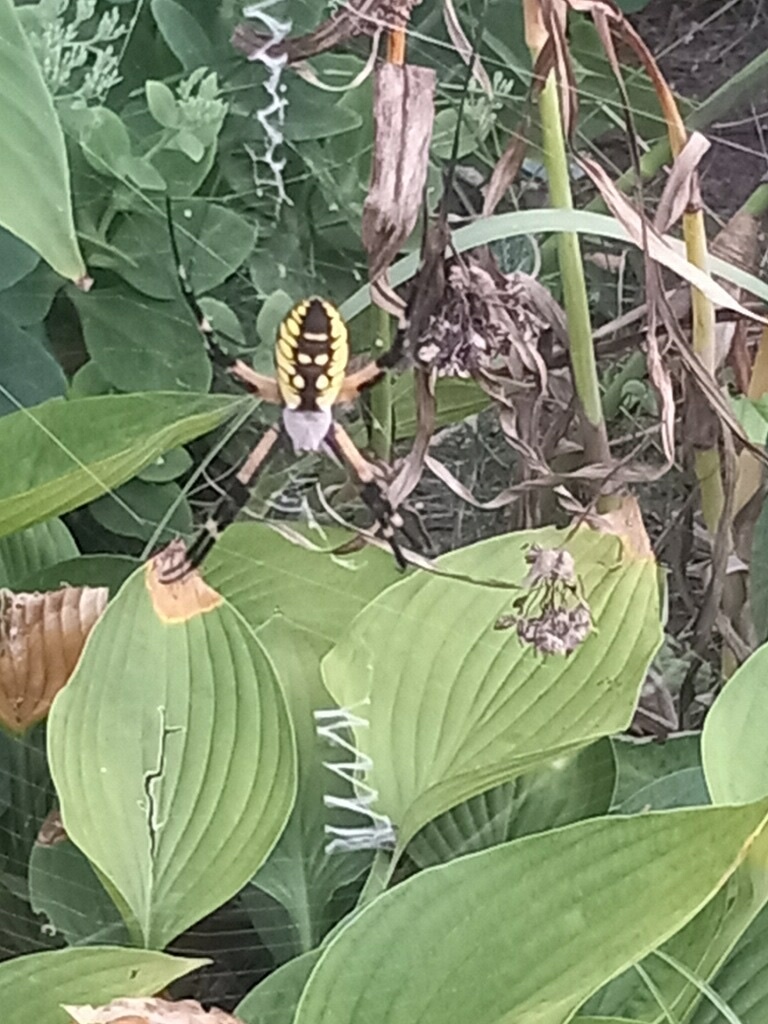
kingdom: Animalia
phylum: Arthropoda
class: Arachnida
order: Araneae
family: Araneidae
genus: Argiope
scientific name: Argiope aurantia
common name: Orb weavers
